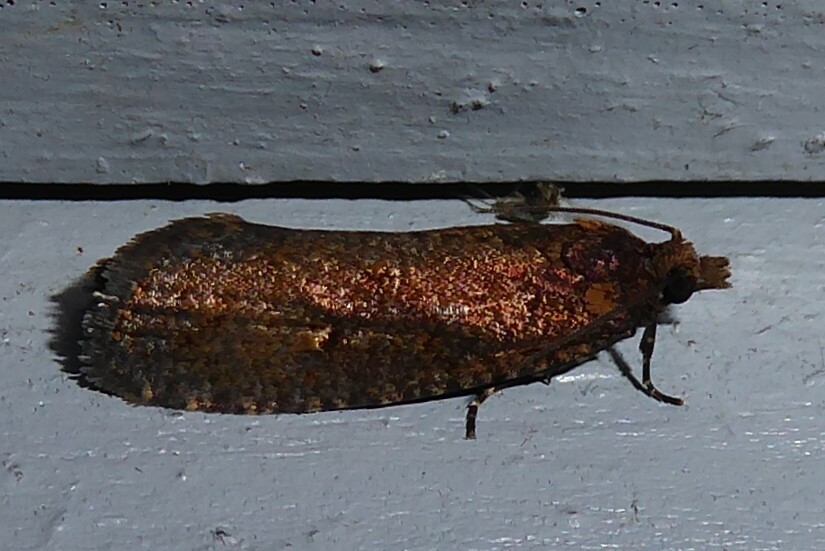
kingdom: Animalia
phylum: Arthropoda
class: Insecta
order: Lepidoptera
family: Tortricidae
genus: Cryptaspasma
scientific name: Cryptaspasma querula
